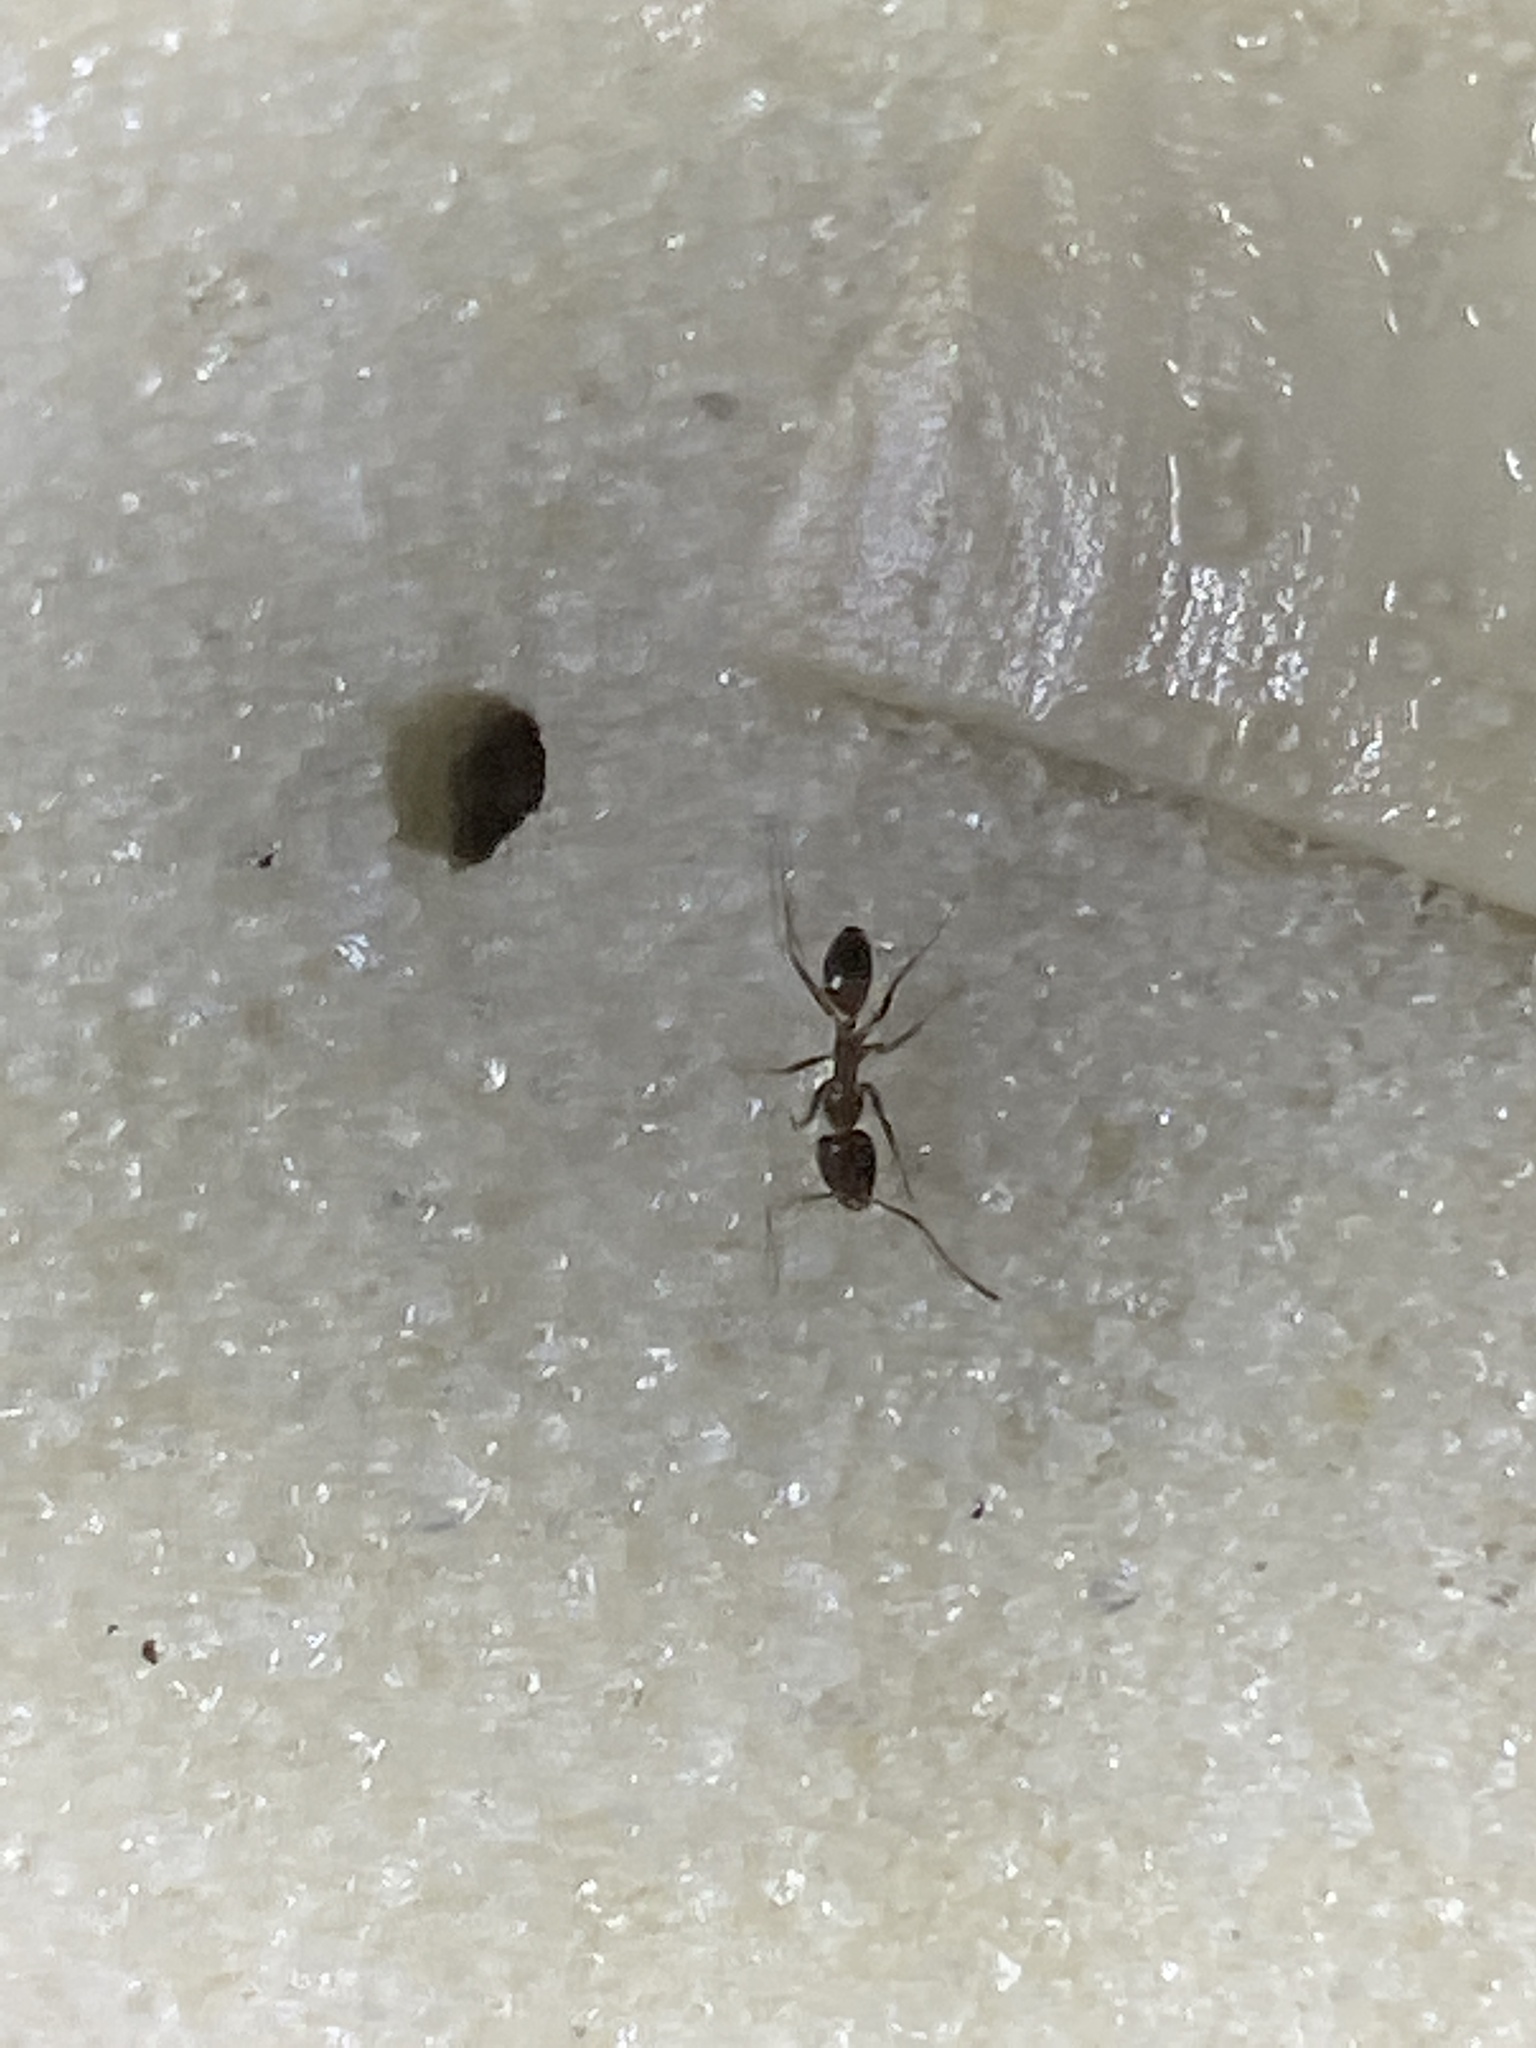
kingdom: Animalia
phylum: Arthropoda
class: Insecta
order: Hymenoptera
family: Formicidae
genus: Linepithema
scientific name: Linepithema humile
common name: Argentine ant
